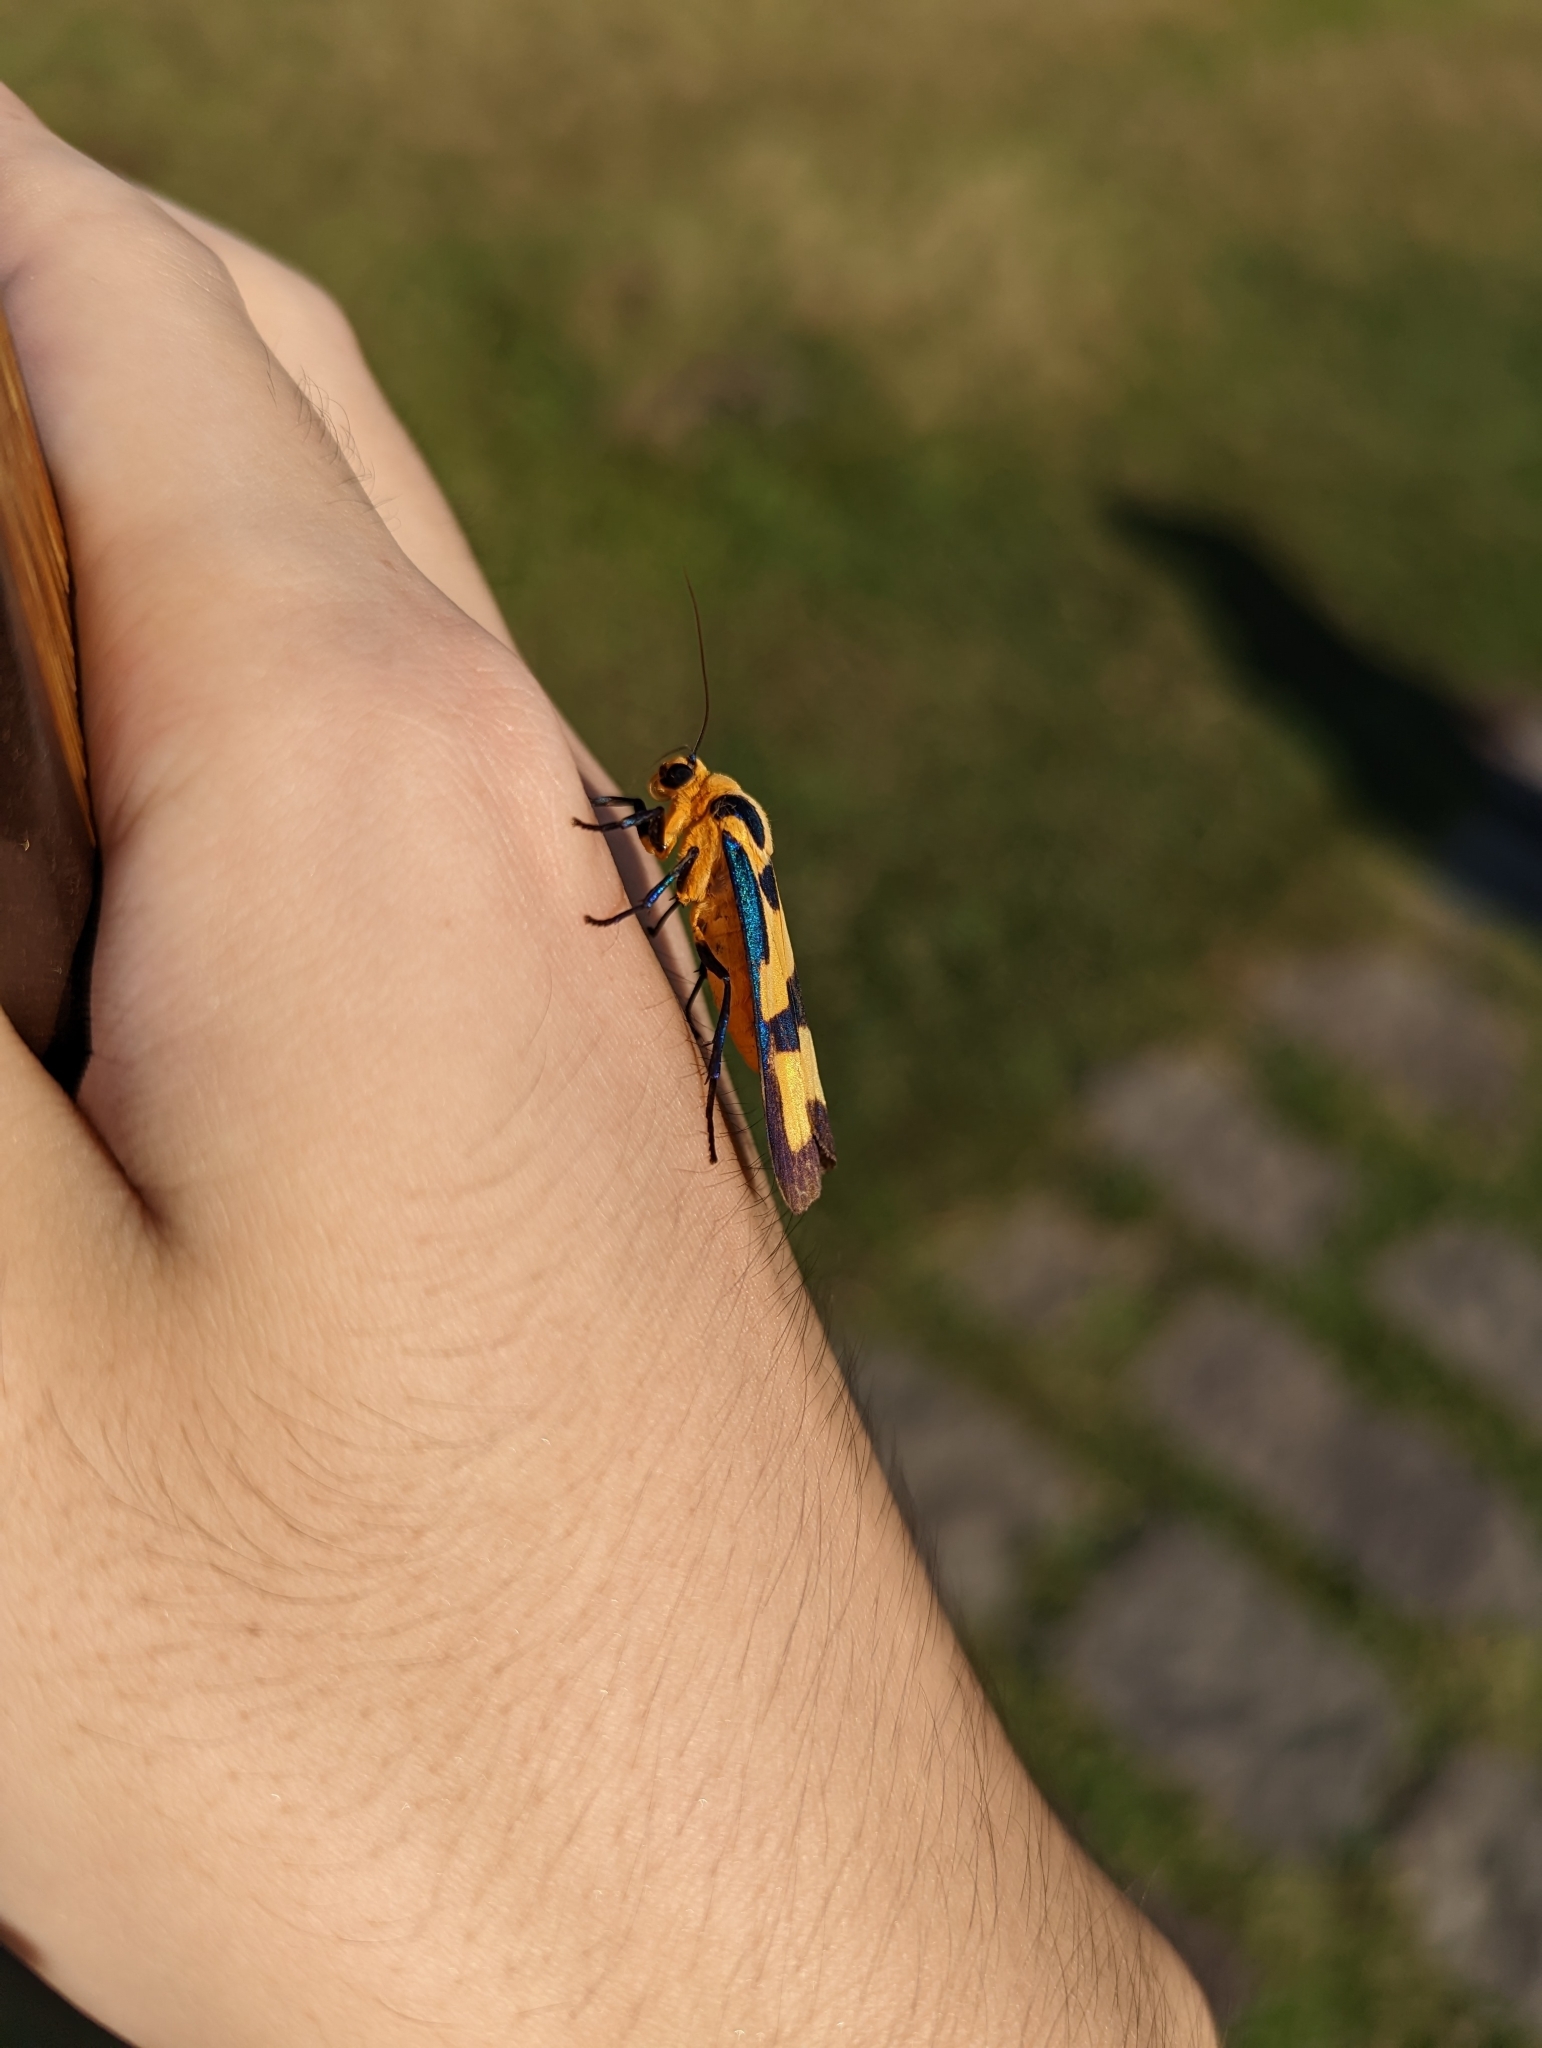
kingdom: Animalia
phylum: Arthropoda
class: Insecta
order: Lepidoptera
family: Erebidae
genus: Chrysaeglia
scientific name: Chrysaeglia magnifica
